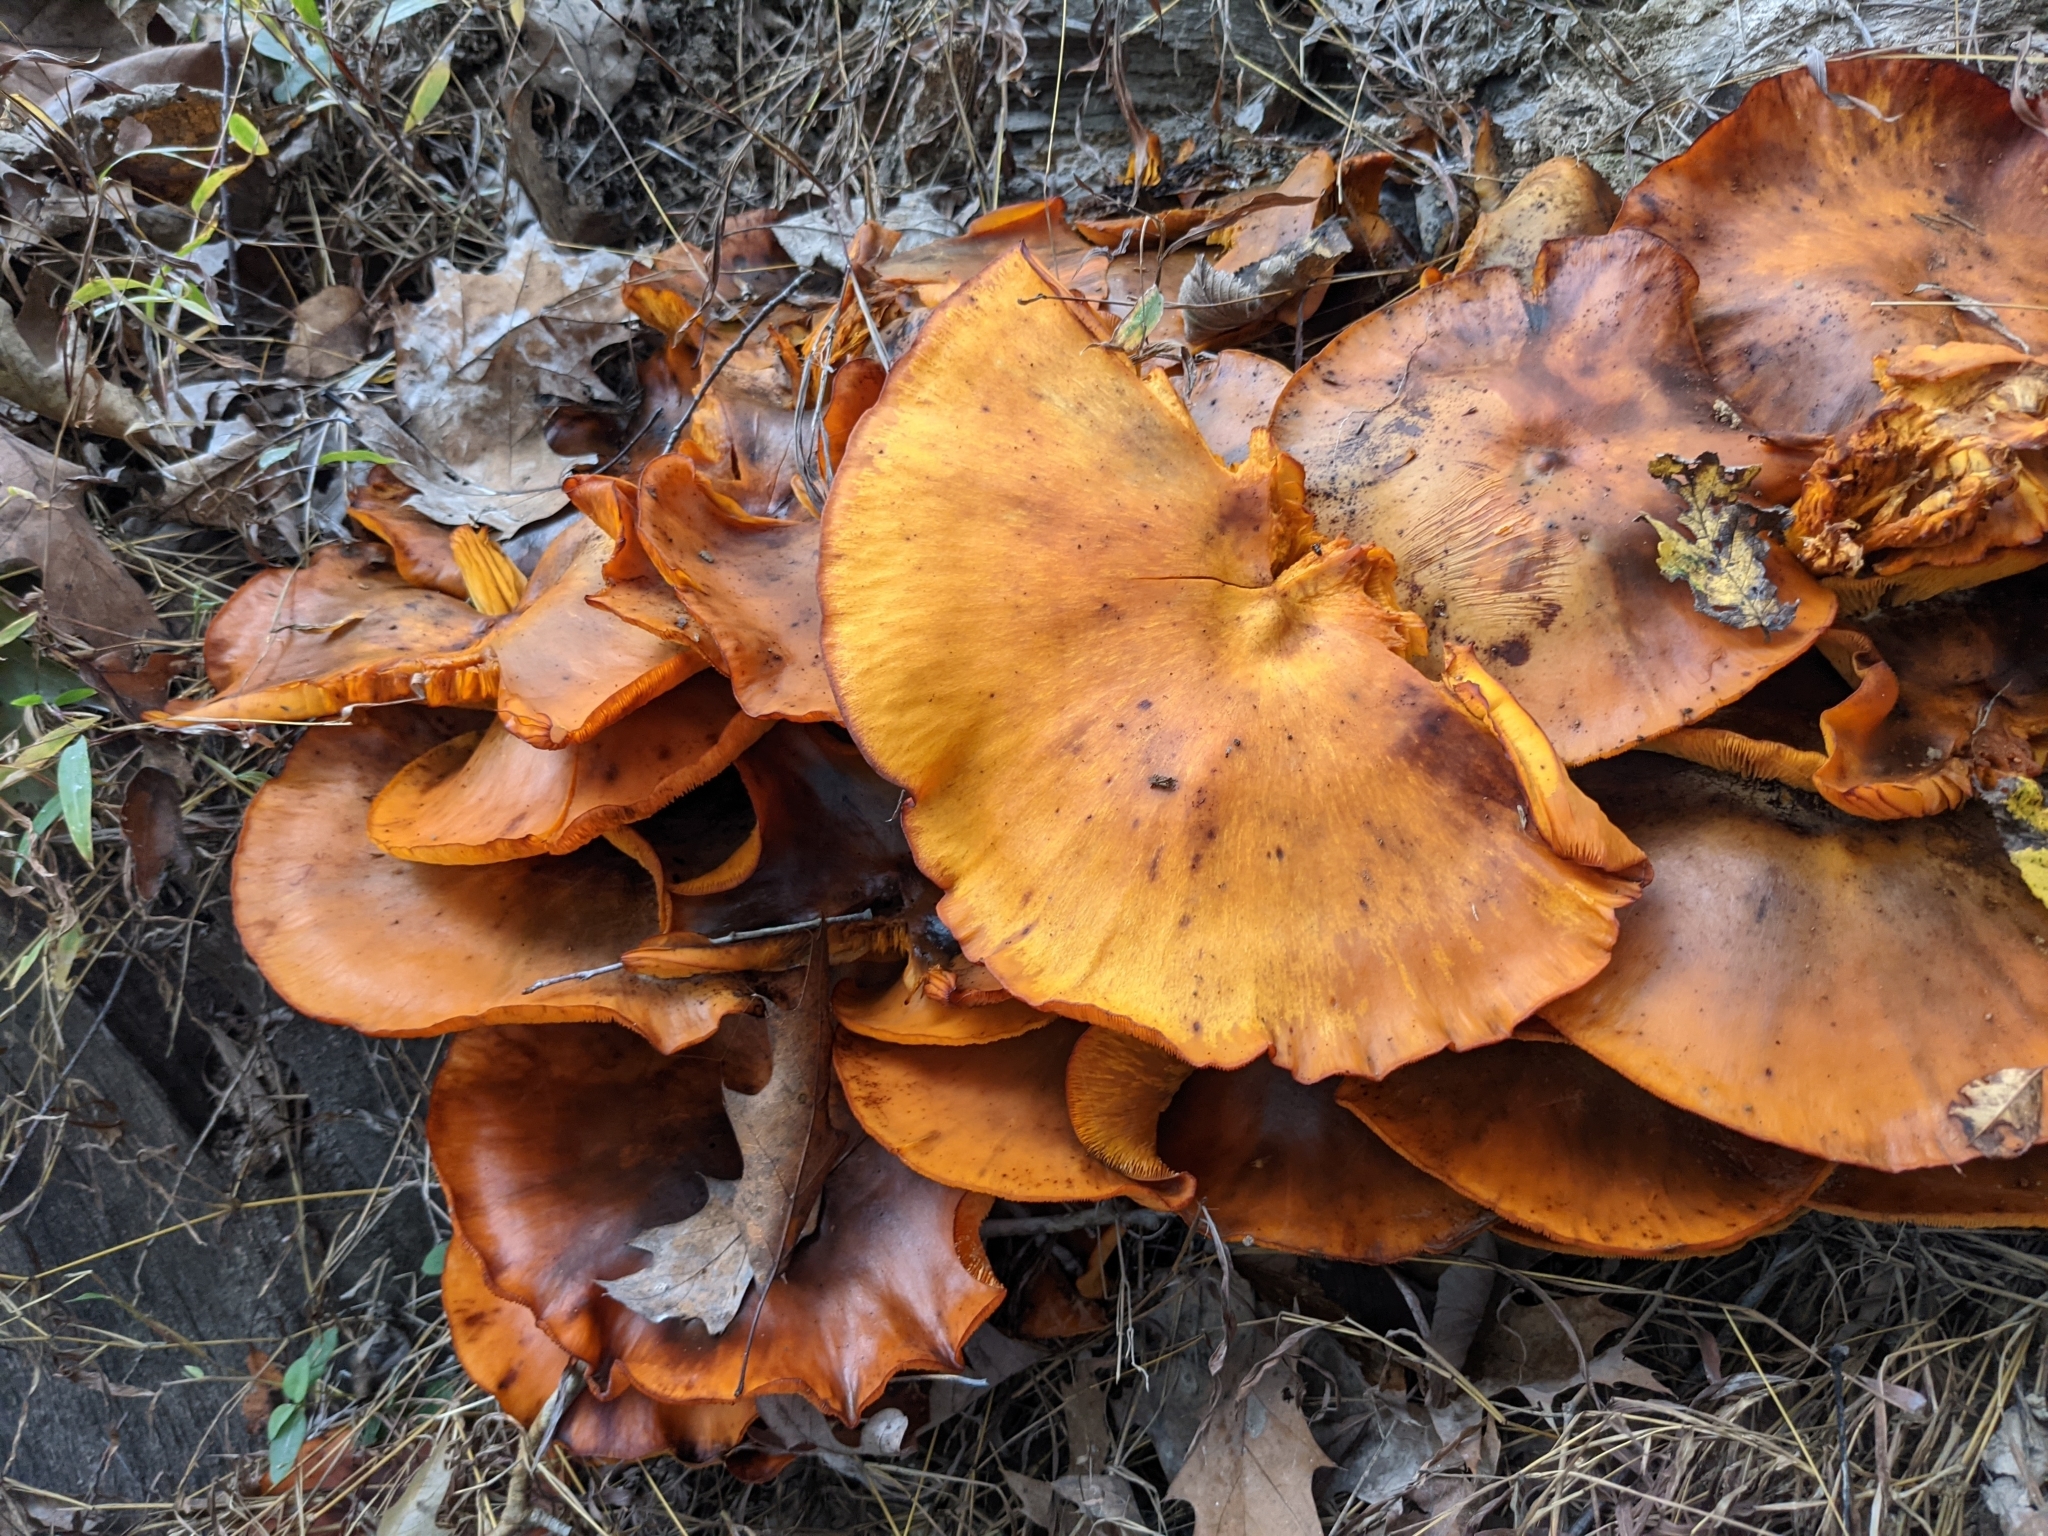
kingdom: Fungi
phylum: Basidiomycota
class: Agaricomycetes
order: Agaricales
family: Omphalotaceae
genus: Omphalotus
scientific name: Omphalotus illudens
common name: Jack o lantern
